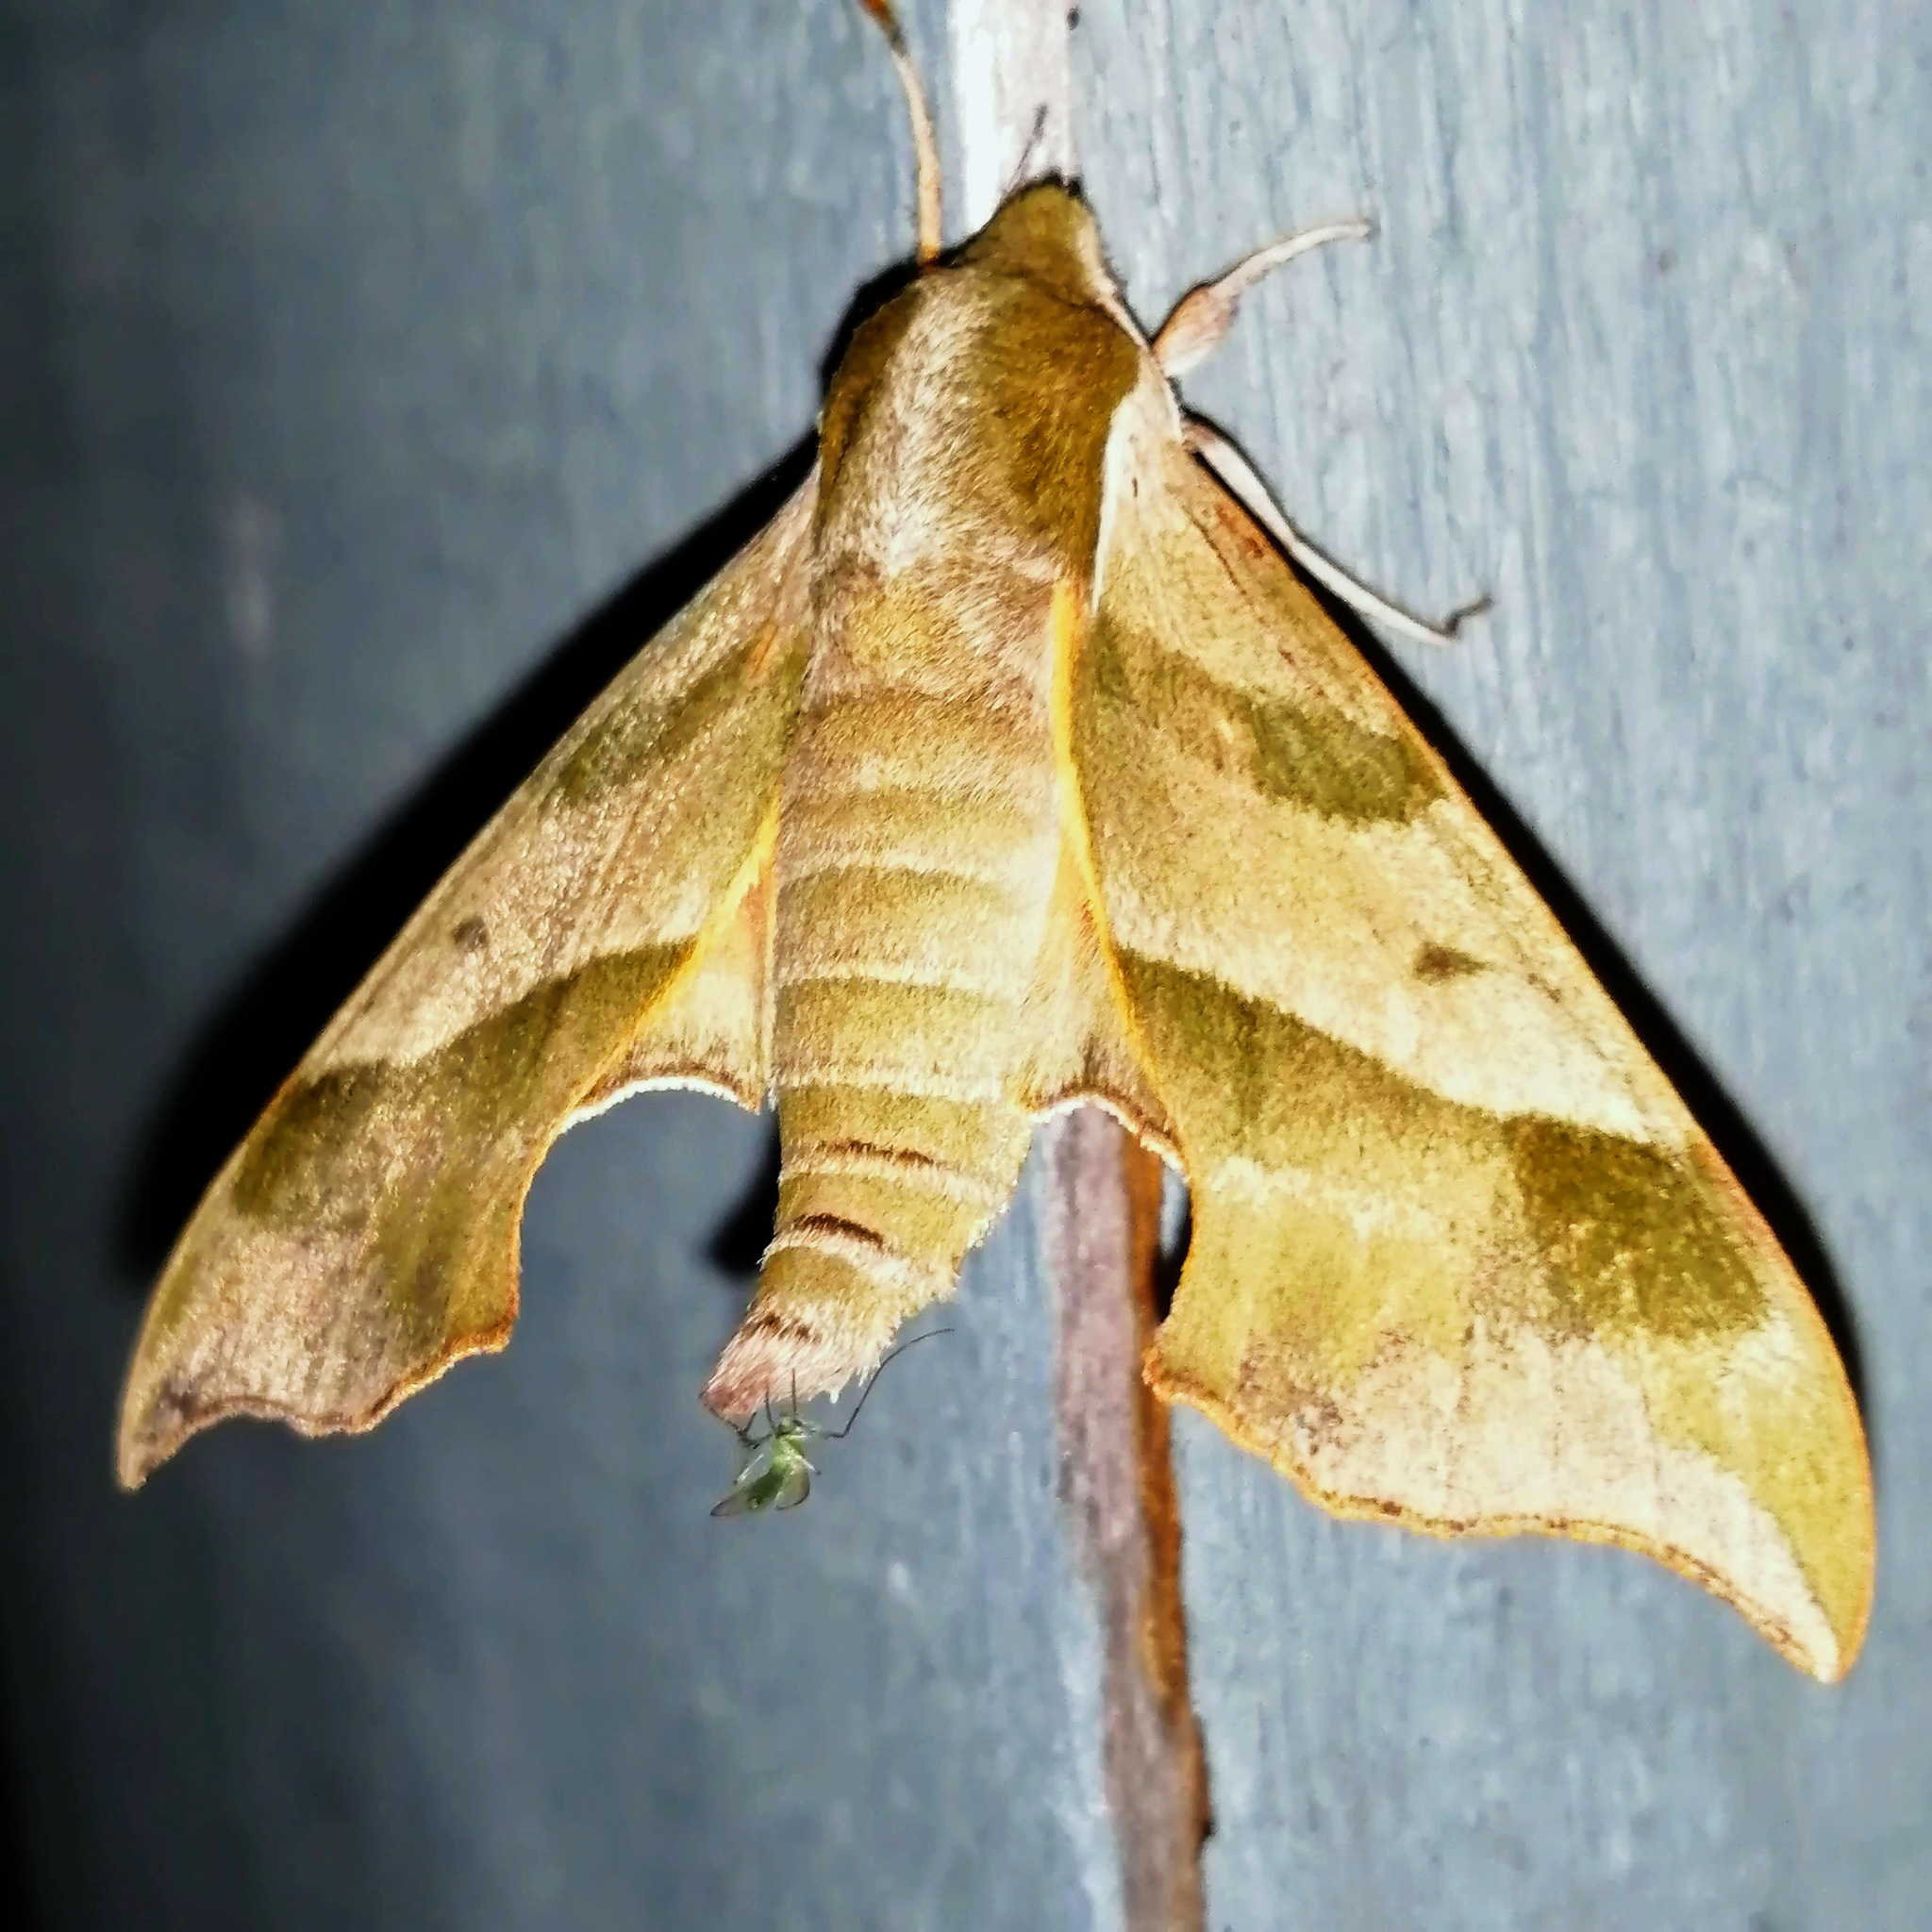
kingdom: Animalia
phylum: Arthropoda
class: Insecta
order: Lepidoptera
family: Sphingidae
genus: Darapsa
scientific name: Darapsa myron
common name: Hog sphinx
